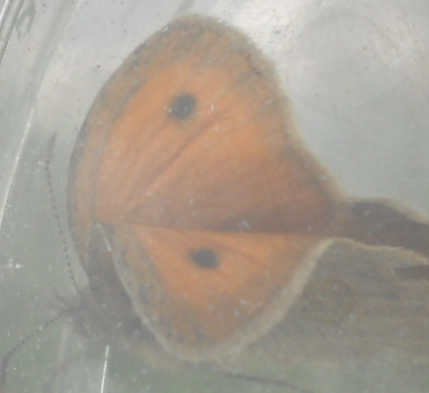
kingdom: Animalia
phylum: Arthropoda
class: Insecta
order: Lepidoptera
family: Nymphalidae
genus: Coenonympha
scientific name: Coenonympha pamphilus
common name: Small heath
